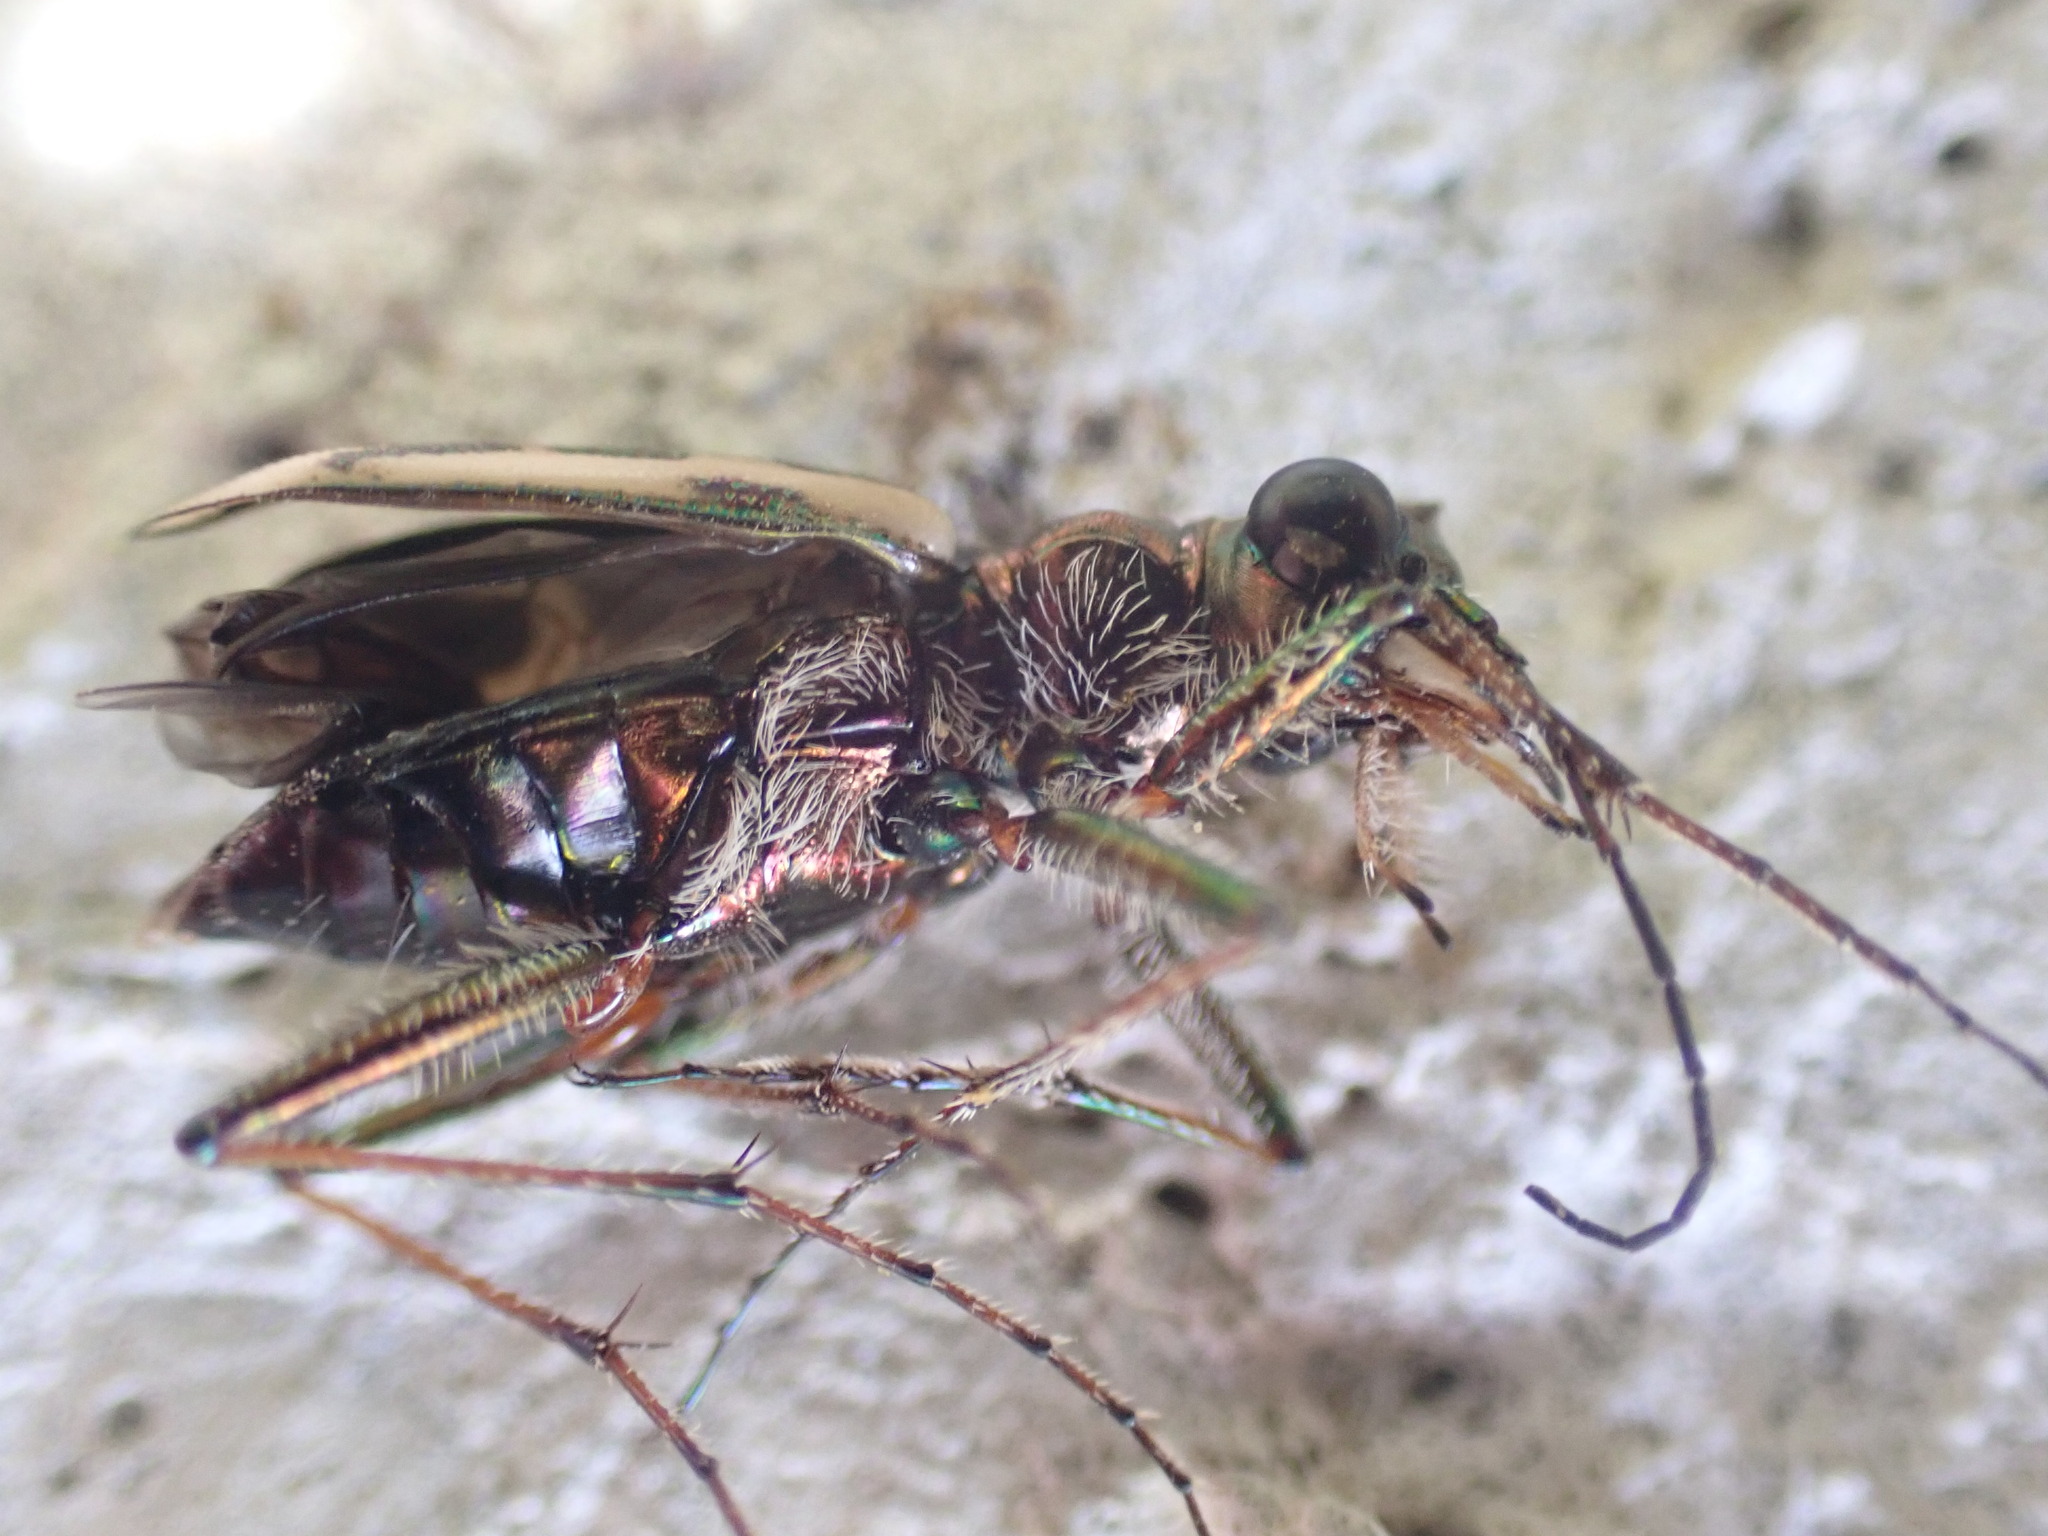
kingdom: Animalia
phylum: Arthropoda
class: Insecta
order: Coleoptera
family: Carabidae
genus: Neocicindela
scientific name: Neocicindela tuberculata
